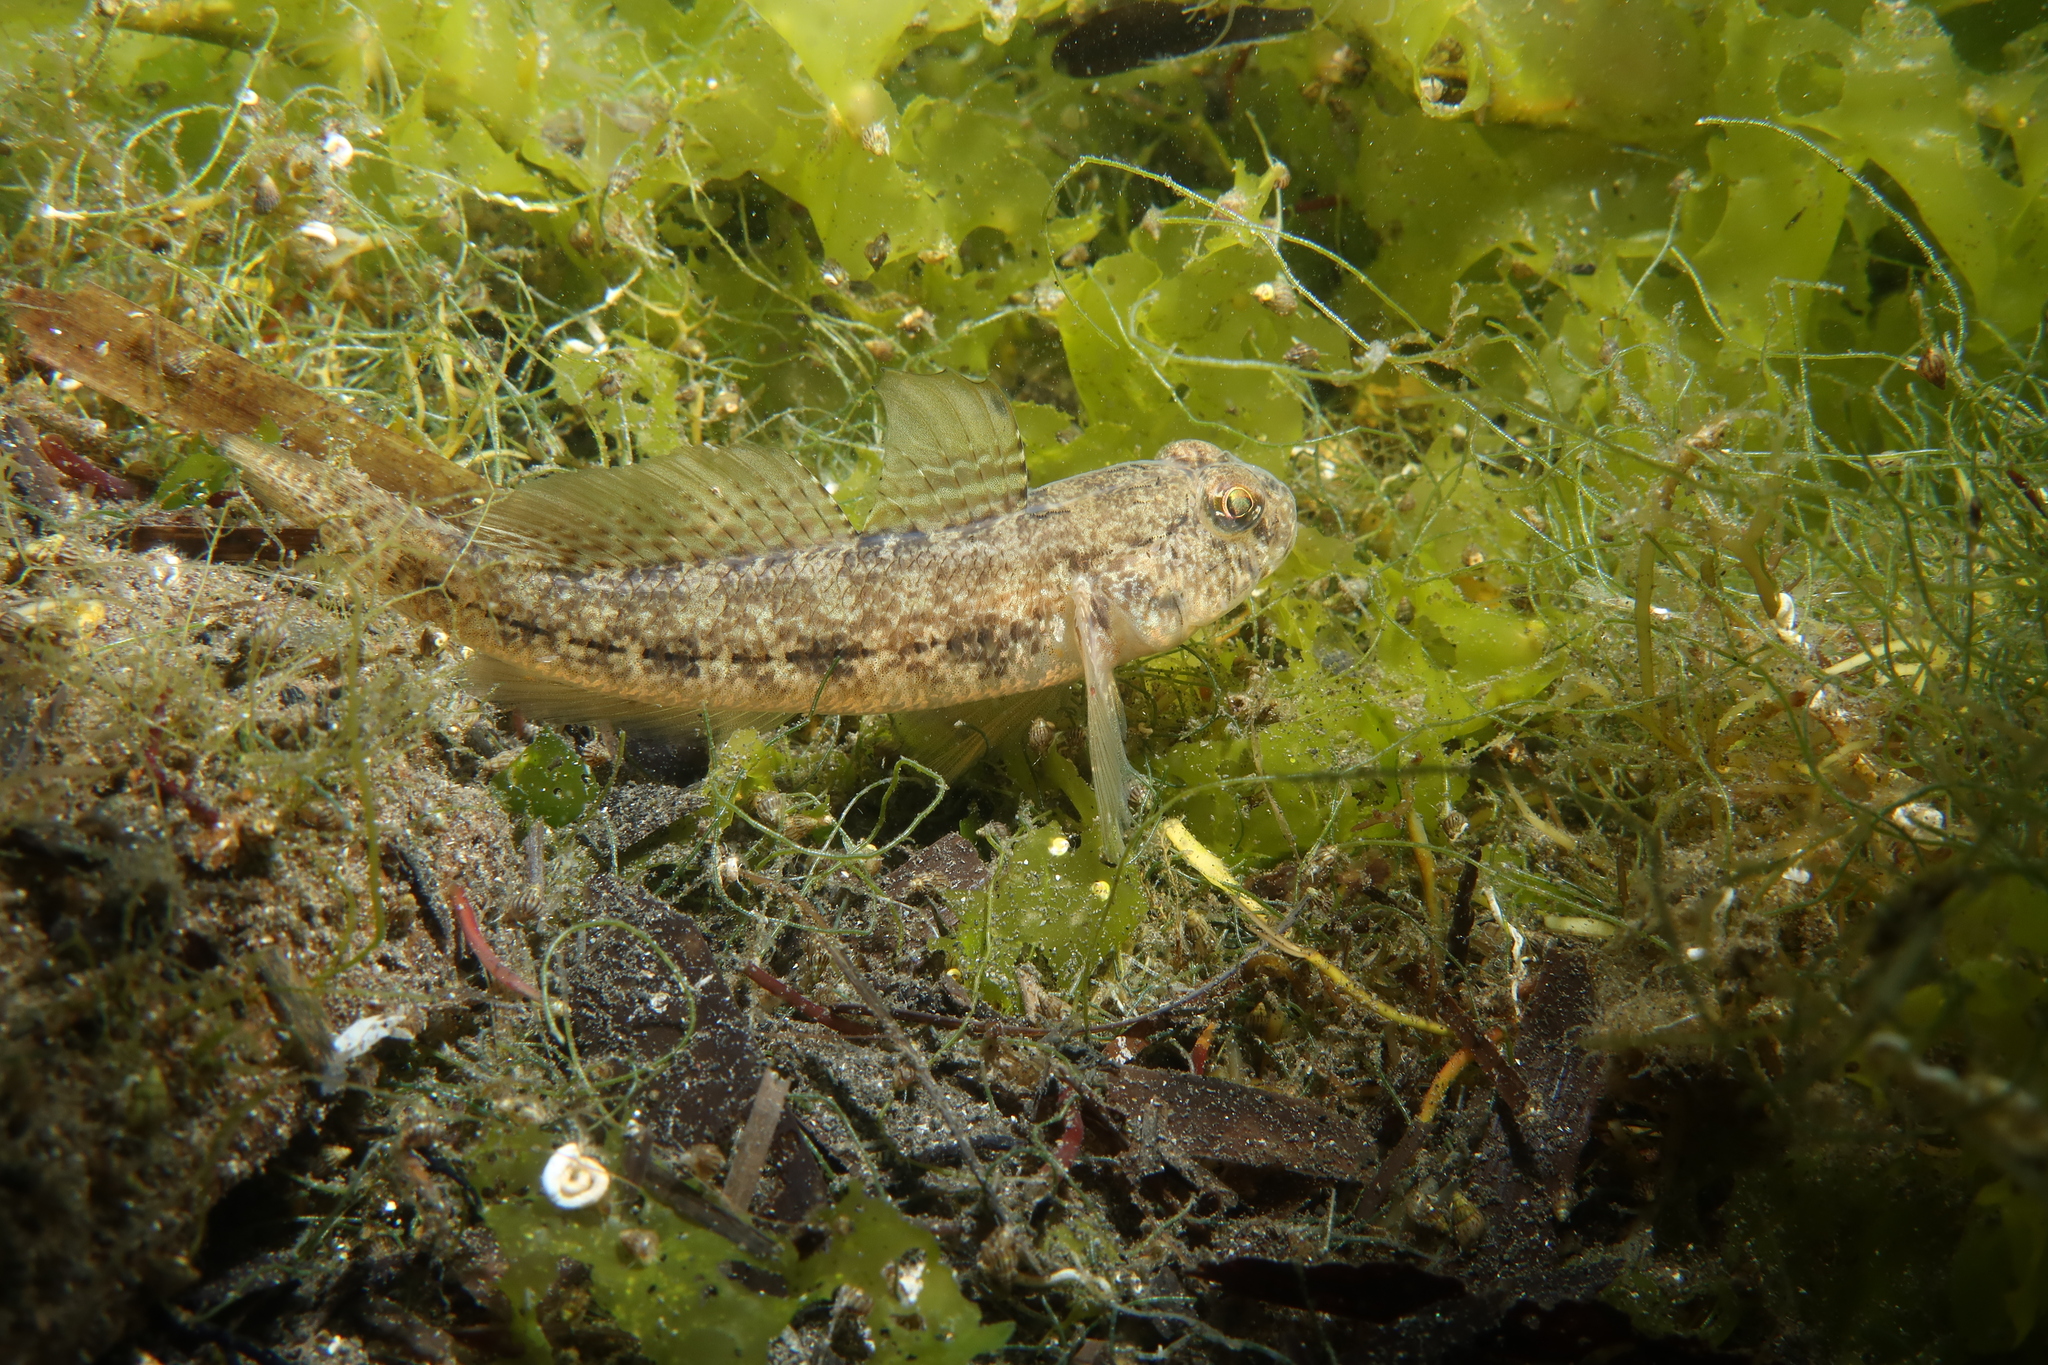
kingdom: Animalia
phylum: Chordata
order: Perciformes
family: Gobiidae
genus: Gobius
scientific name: Gobius niger
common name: Black goby
